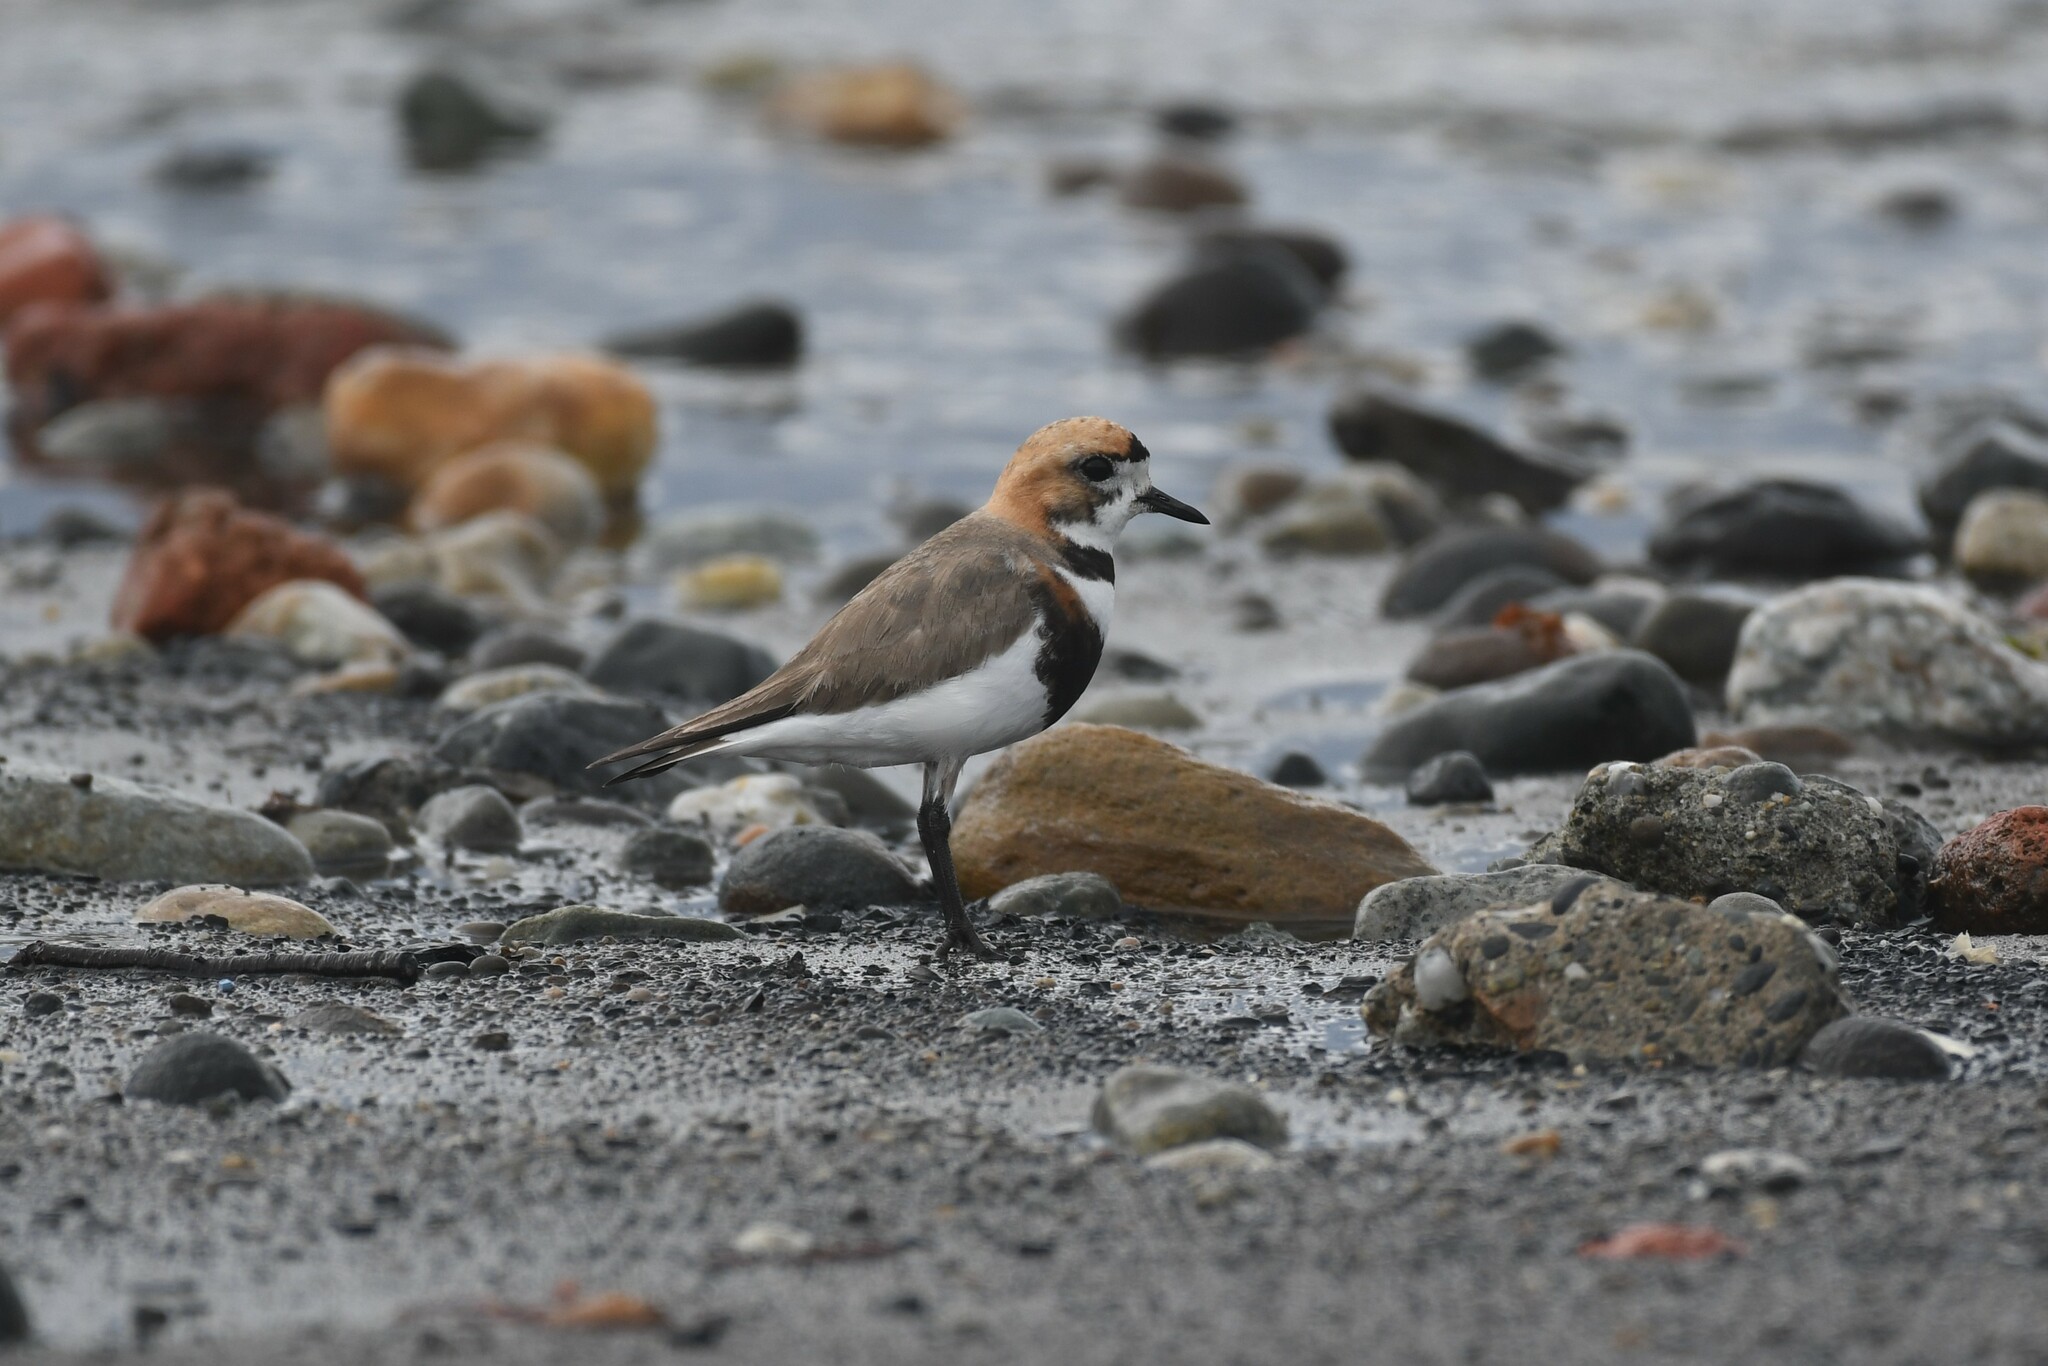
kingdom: Animalia
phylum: Chordata
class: Aves
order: Charadriiformes
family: Charadriidae
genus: Anarhynchus
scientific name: Anarhynchus
